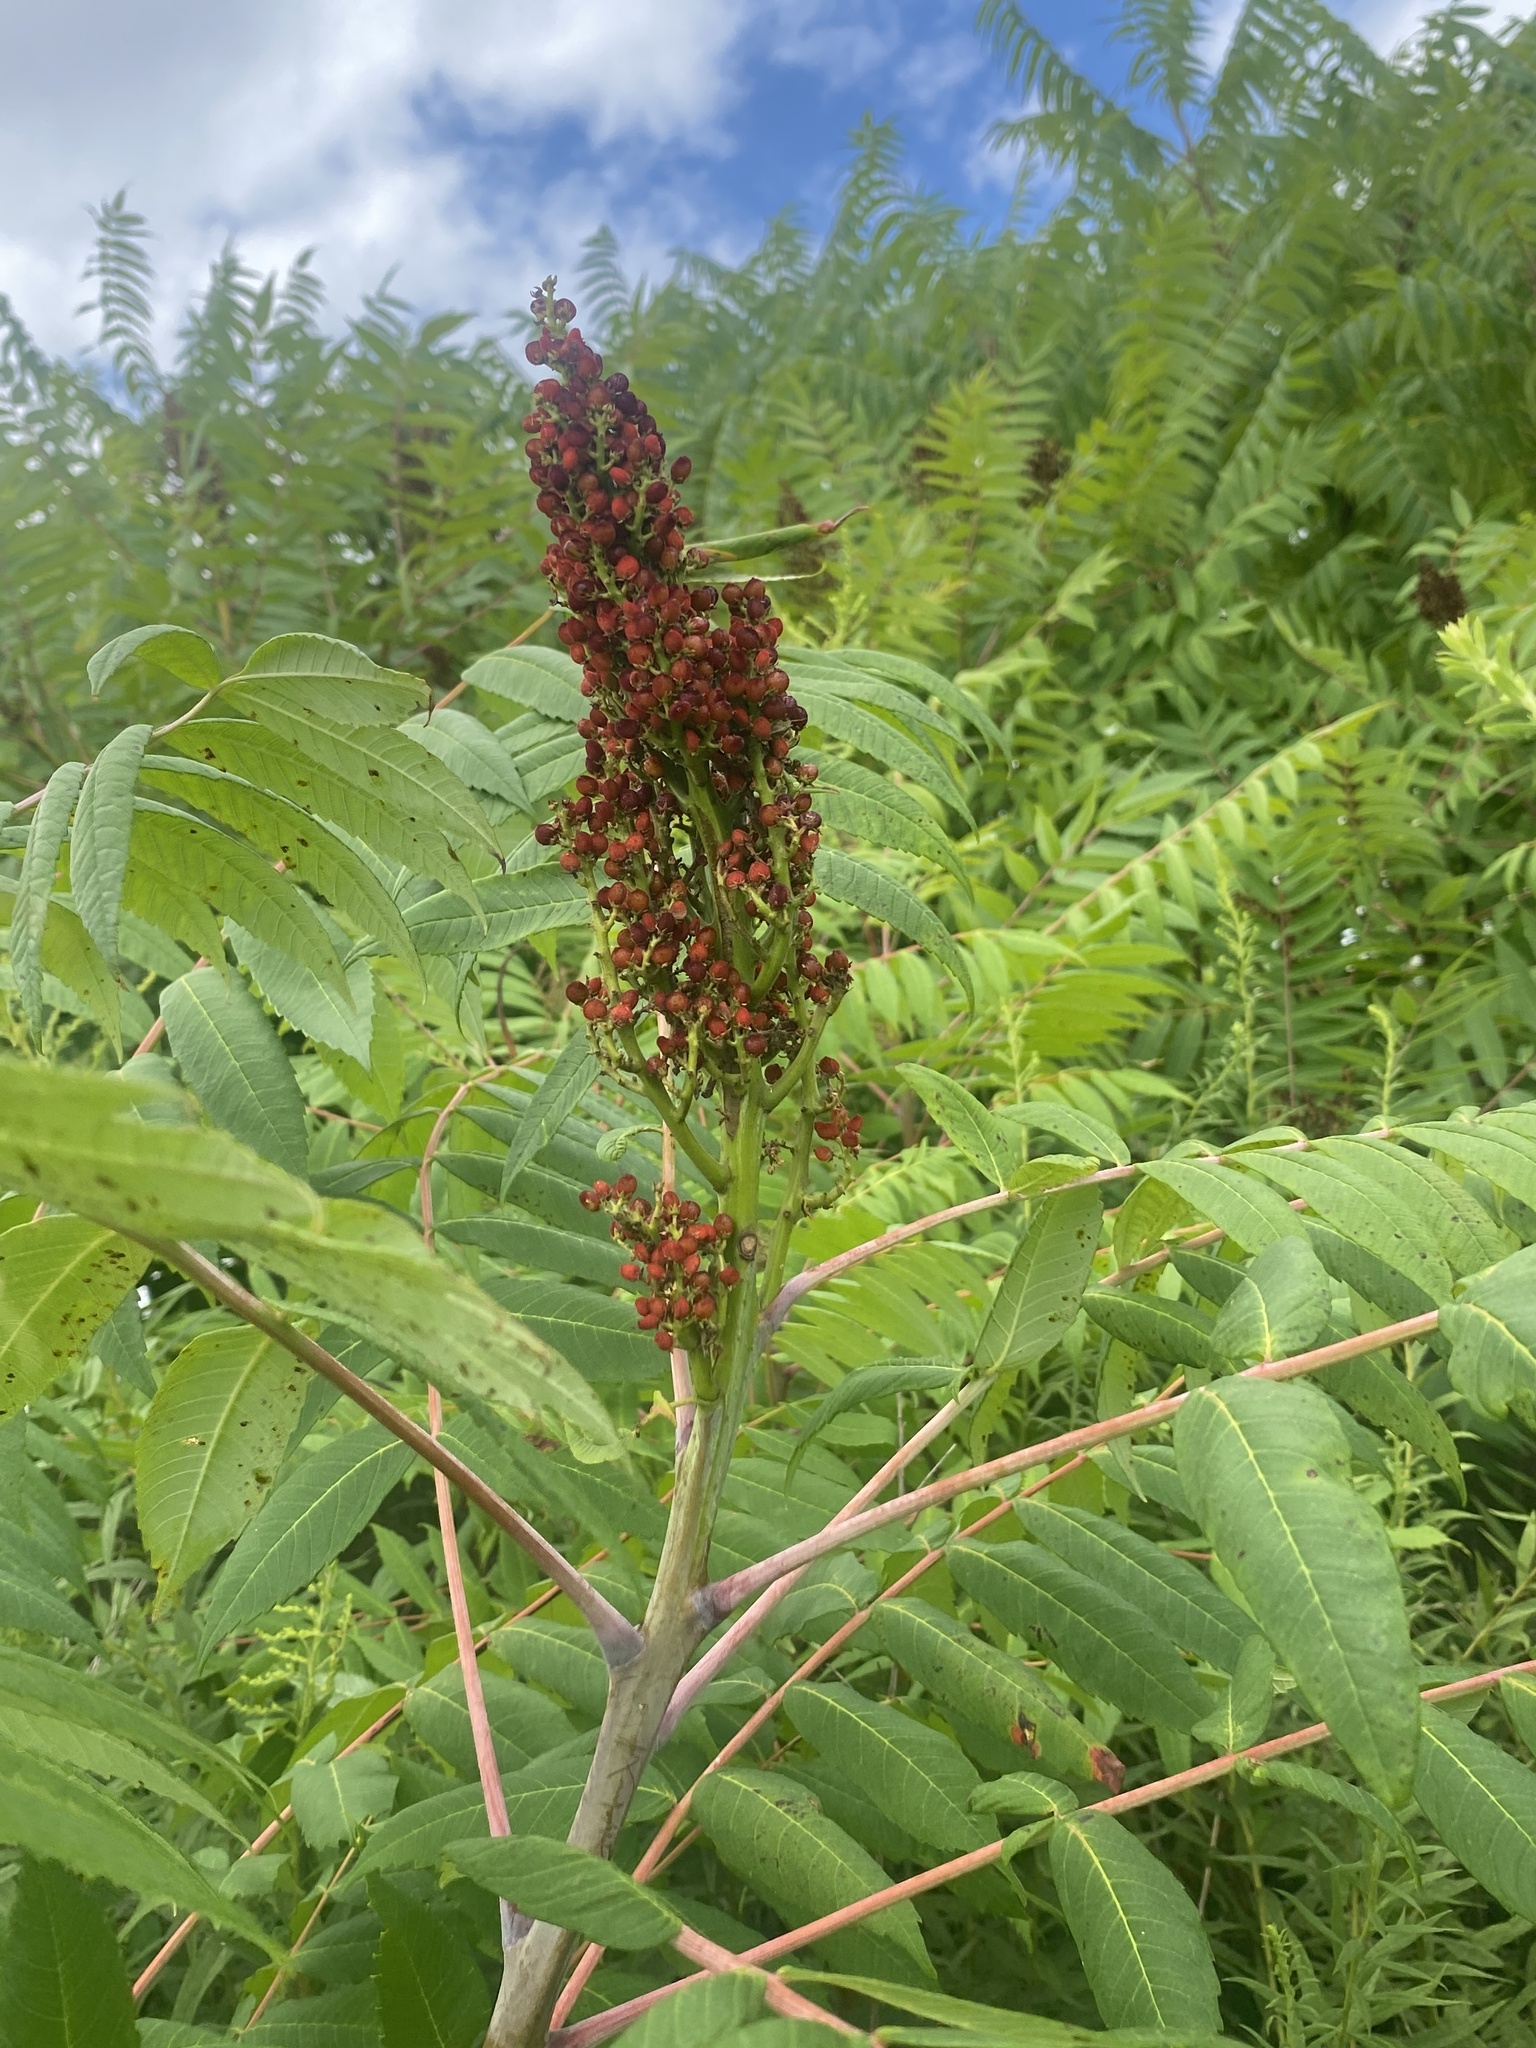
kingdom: Plantae
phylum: Tracheophyta
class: Magnoliopsida
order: Sapindales
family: Anacardiaceae
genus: Rhus
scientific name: Rhus glabra
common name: Scarlet sumac
